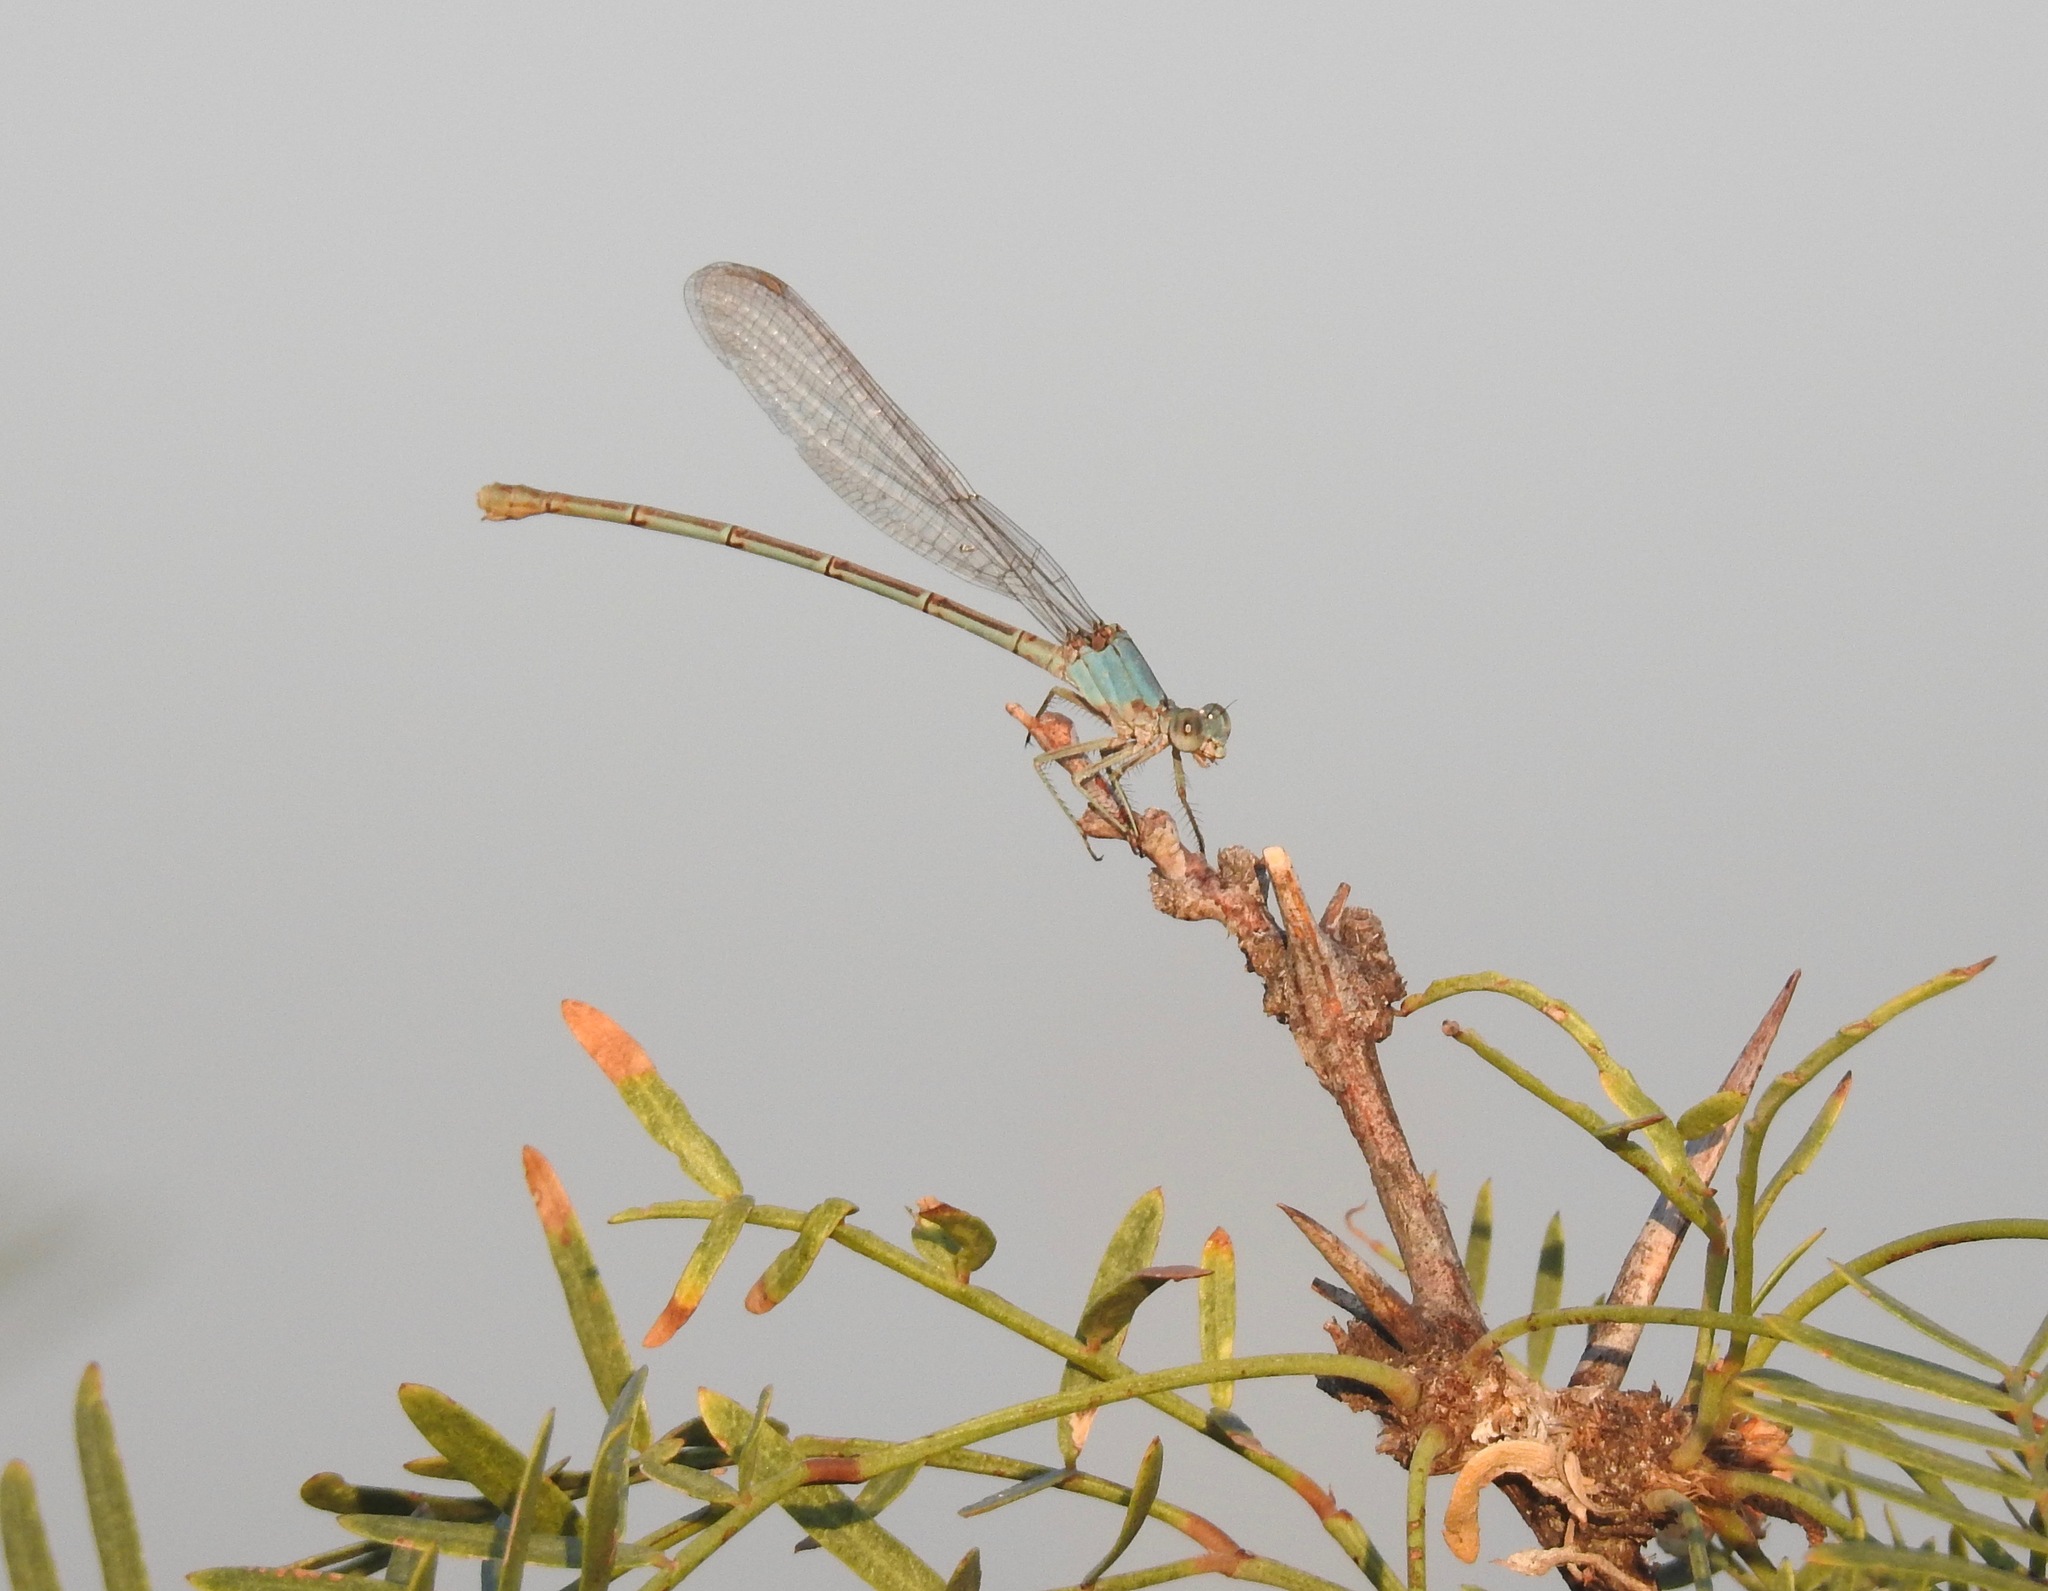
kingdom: Animalia
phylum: Arthropoda
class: Insecta
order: Odonata
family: Coenagrionidae
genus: Argia
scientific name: Argia moesta
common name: Powdered dancer
